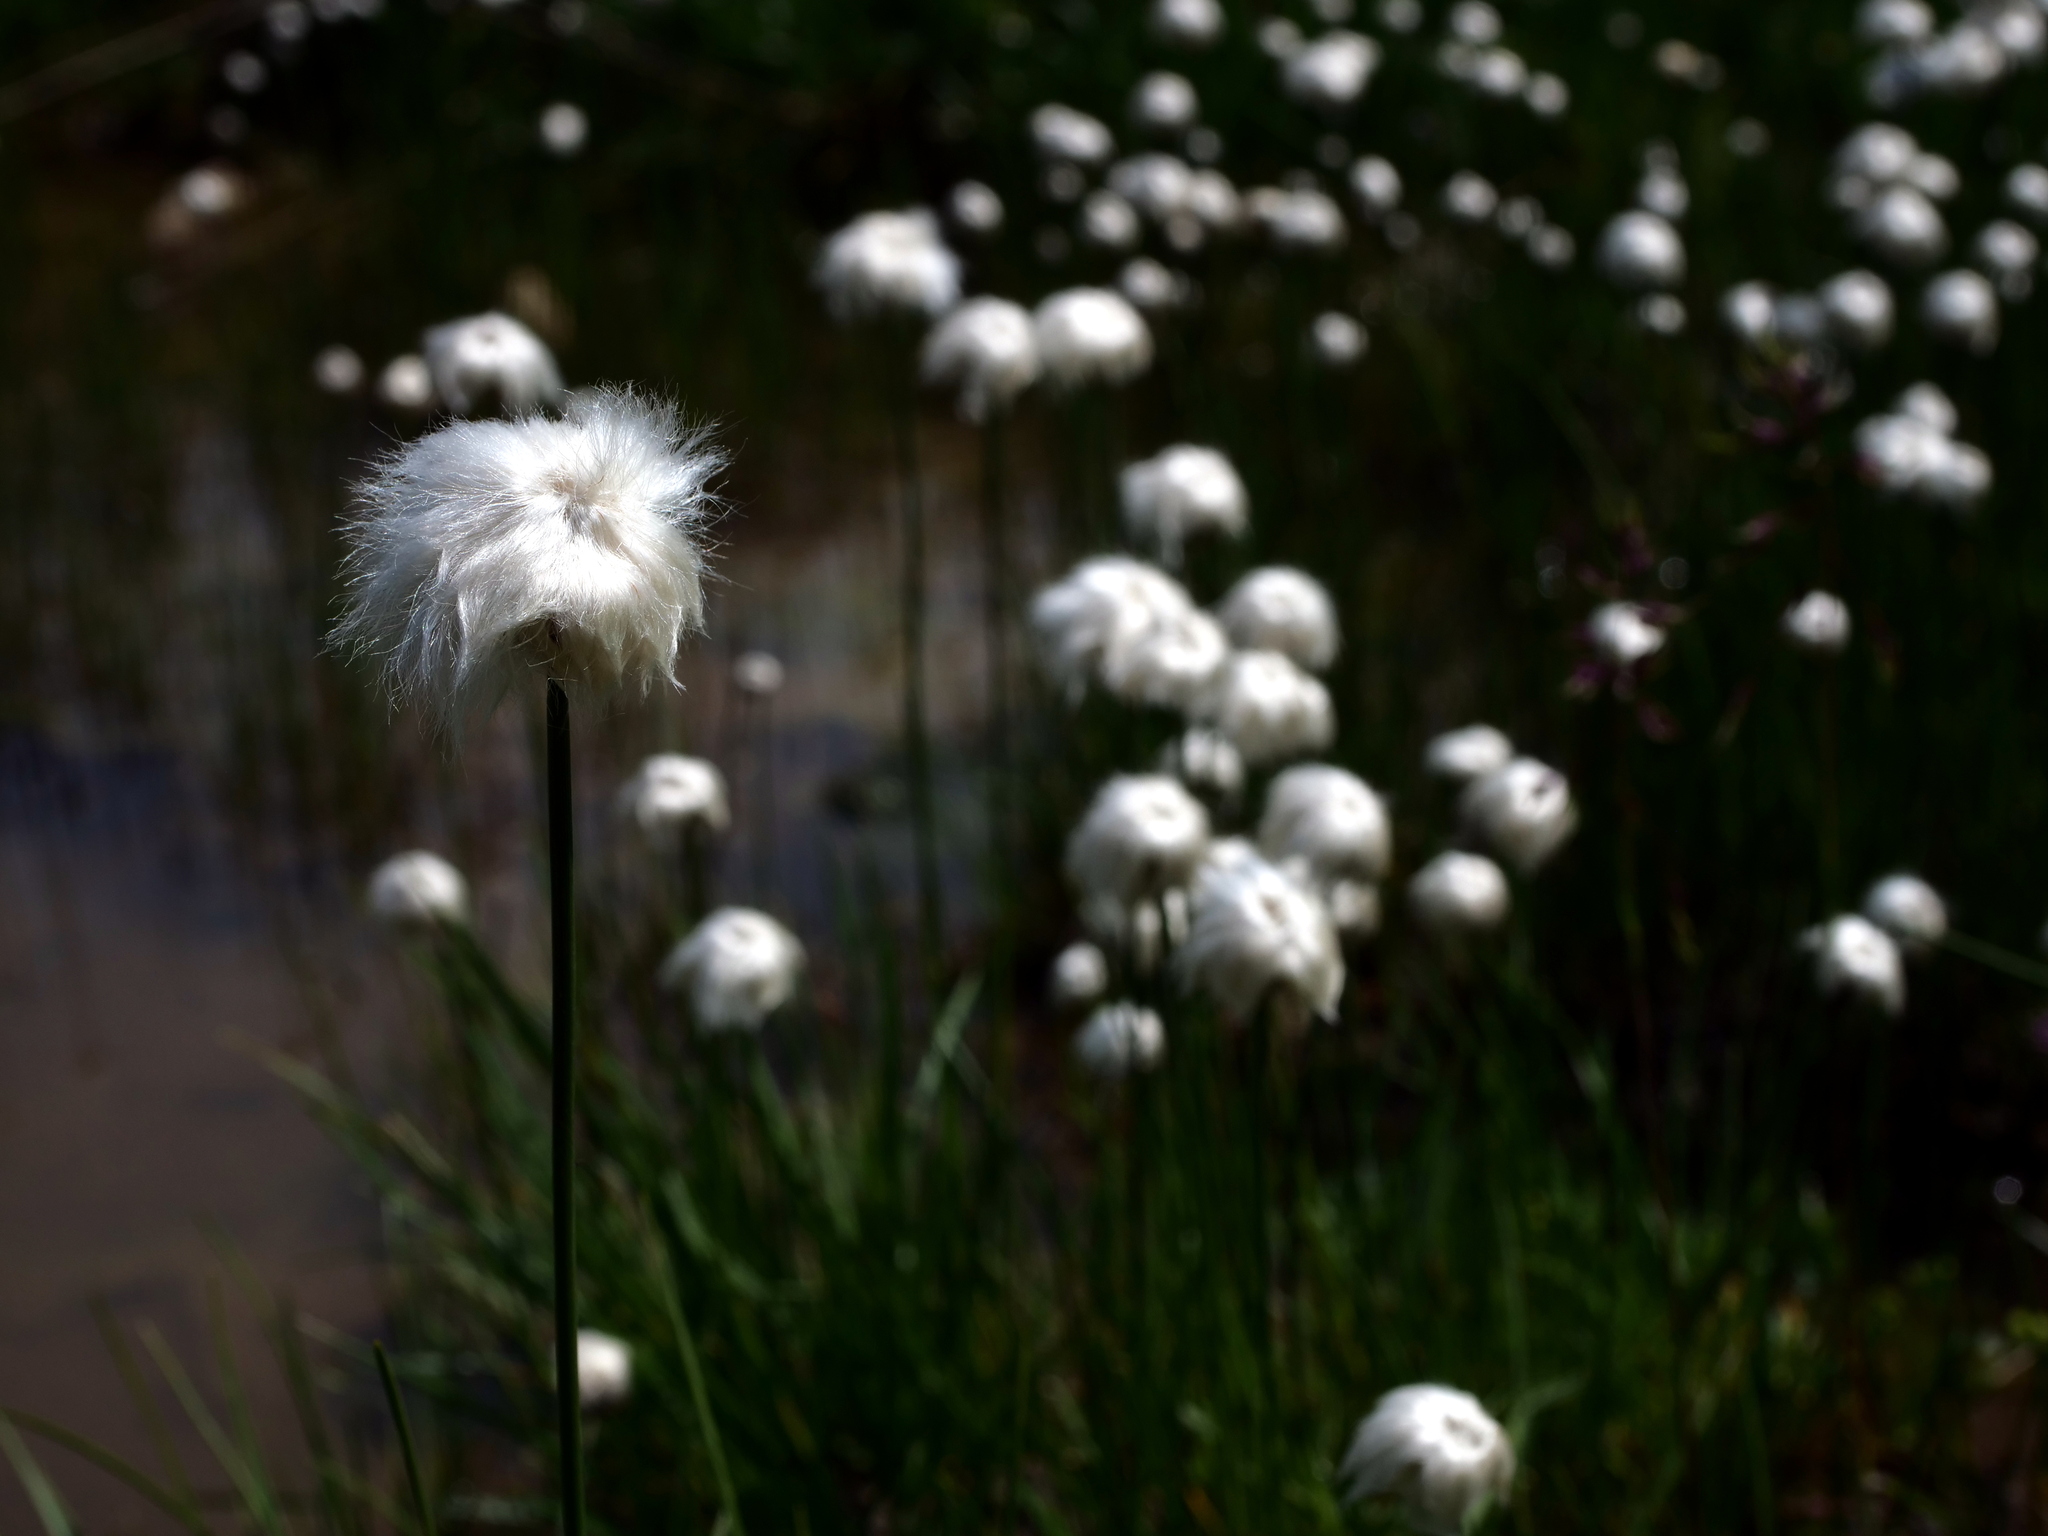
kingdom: Plantae
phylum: Tracheophyta
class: Liliopsida
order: Poales
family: Cyperaceae
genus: Eriophorum
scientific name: Eriophorum scheuchzeri
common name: Scheuchzer's cottongrass
